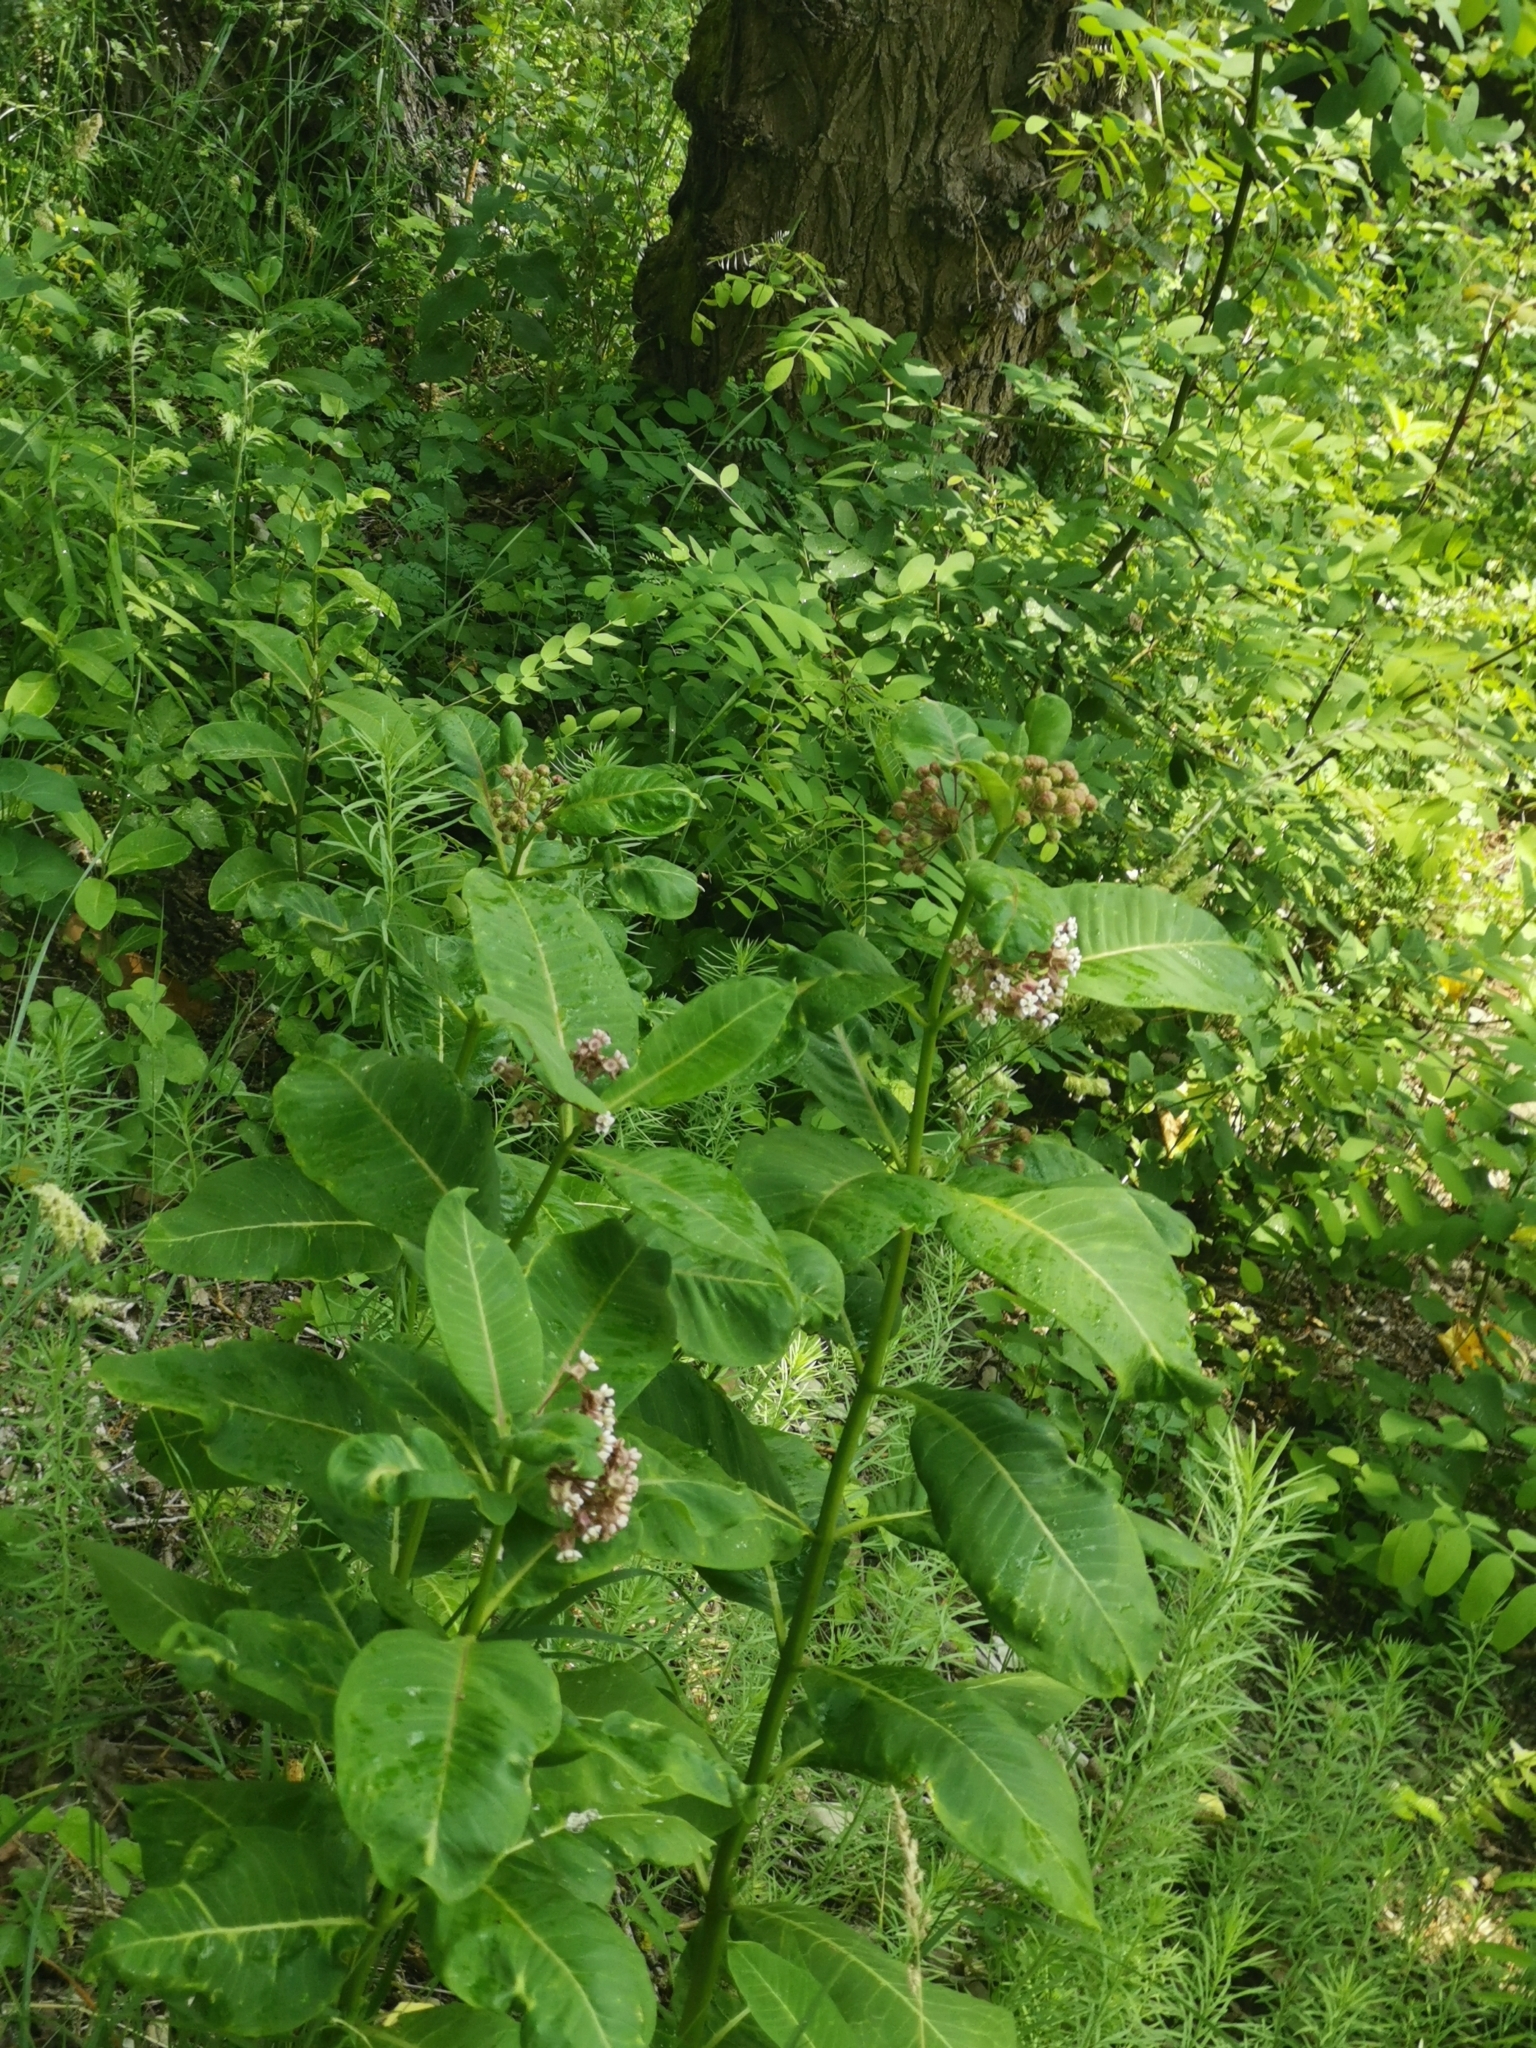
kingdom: Plantae
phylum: Tracheophyta
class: Magnoliopsida
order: Gentianales
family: Apocynaceae
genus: Asclepias
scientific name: Asclepias syriaca
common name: Common milkweed
